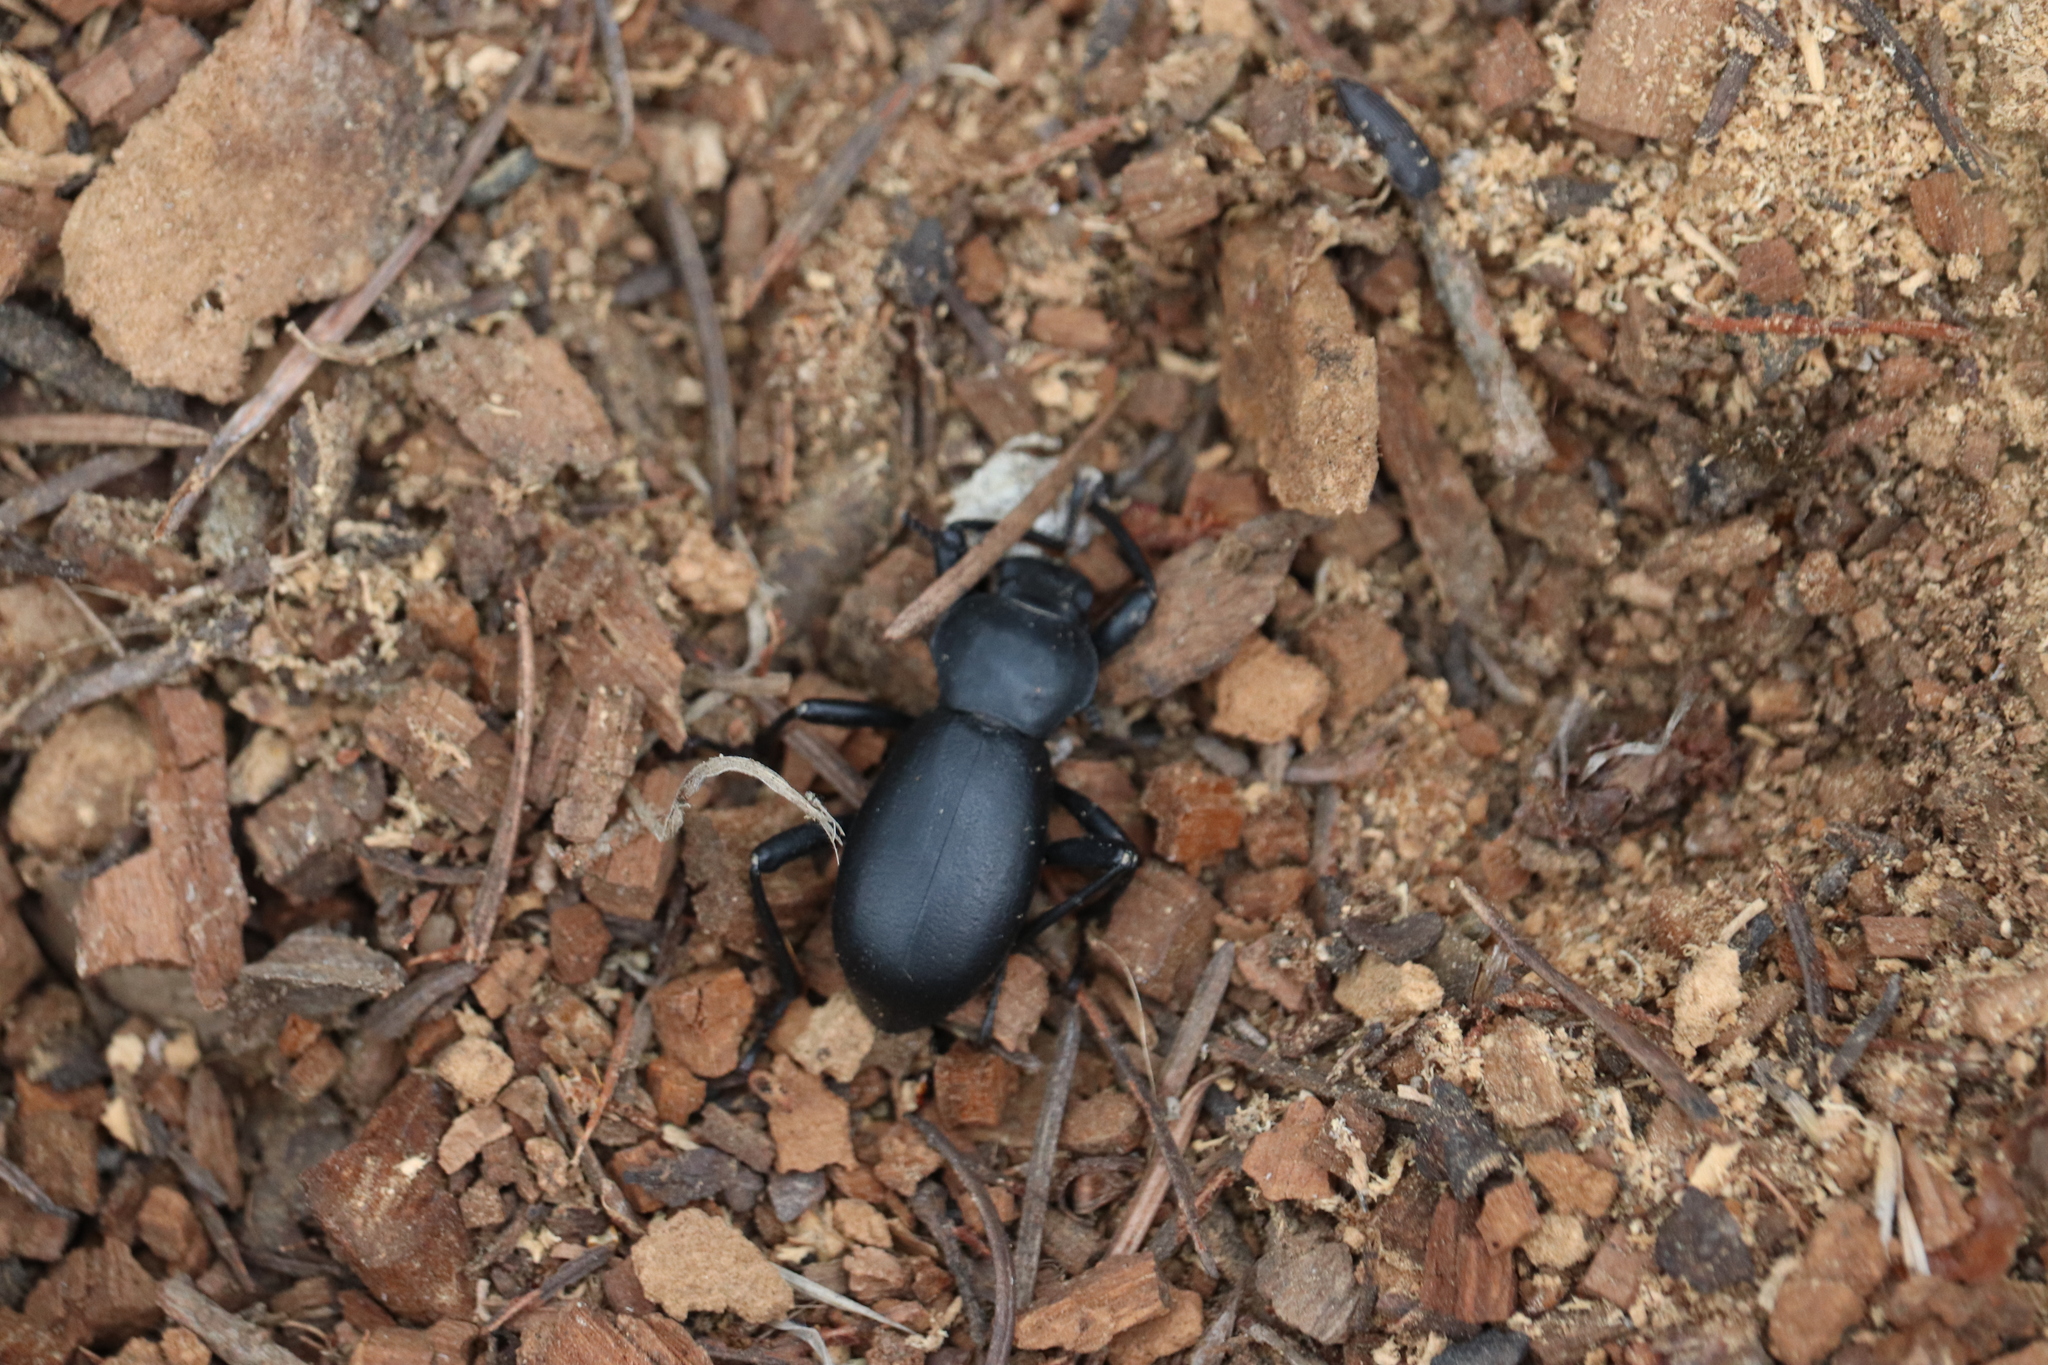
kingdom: Animalia
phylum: Arthropoda
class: Insecta
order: Coleoptera
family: Tenebrionidae
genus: Coelocnemis
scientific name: Coelocnemis dilaticollis
